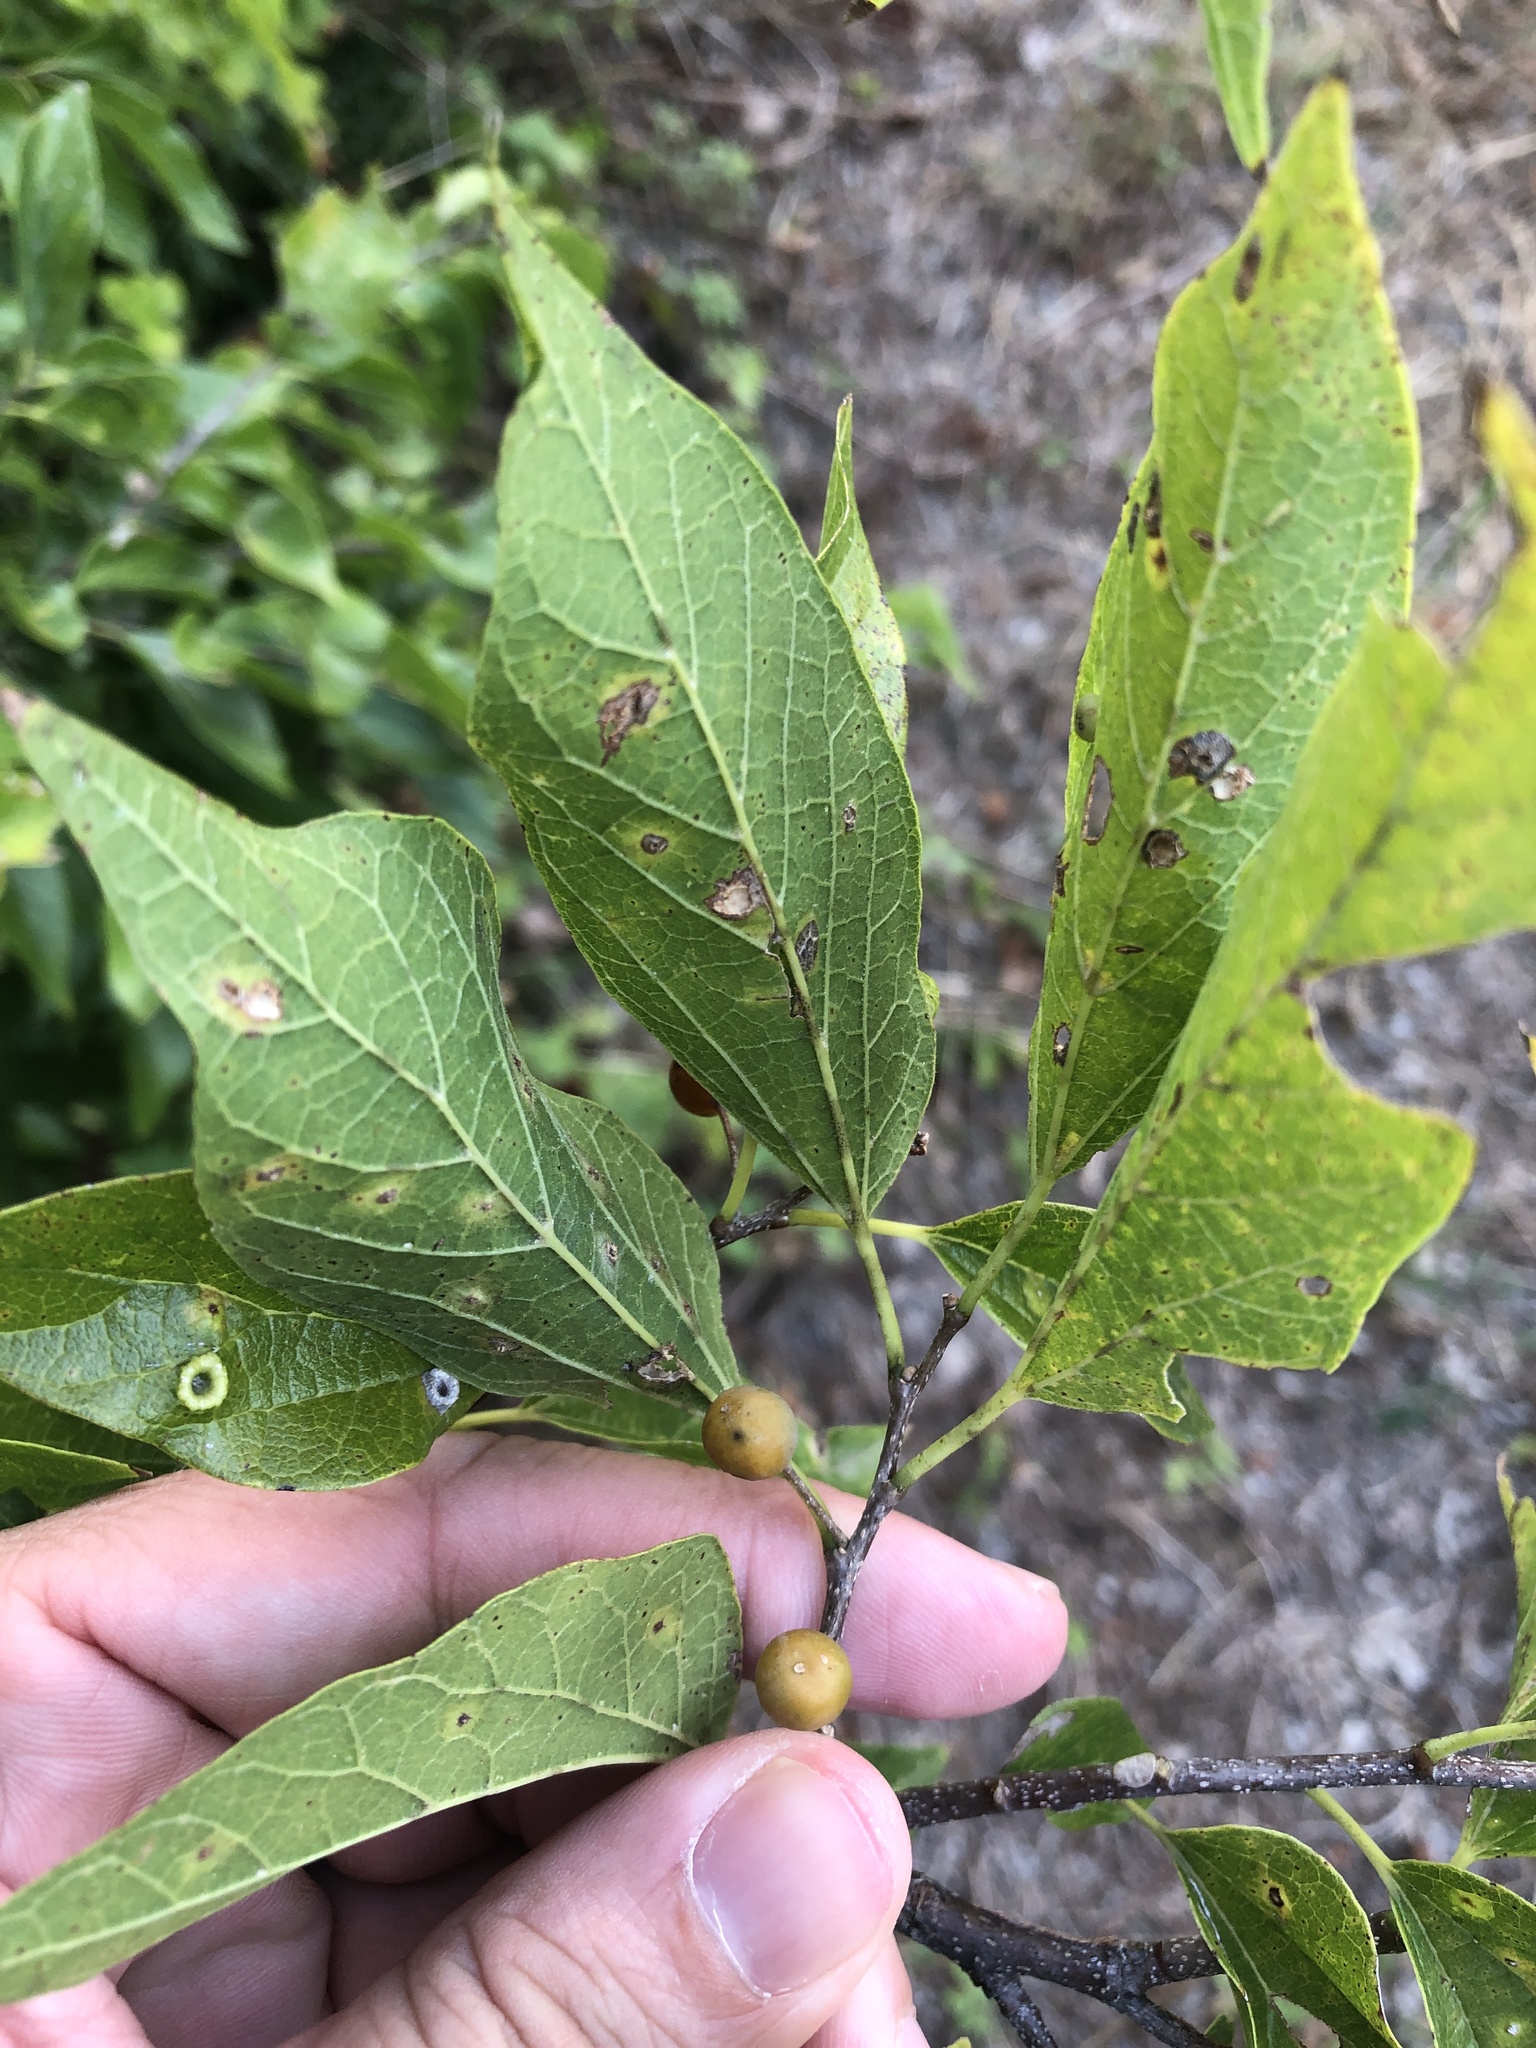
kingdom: Plantae
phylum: Tracheophyta
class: Magnoliopsida
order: Rosales
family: Cannabaceae
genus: Celtis
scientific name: Celtis laevigata
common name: Sugarberry
